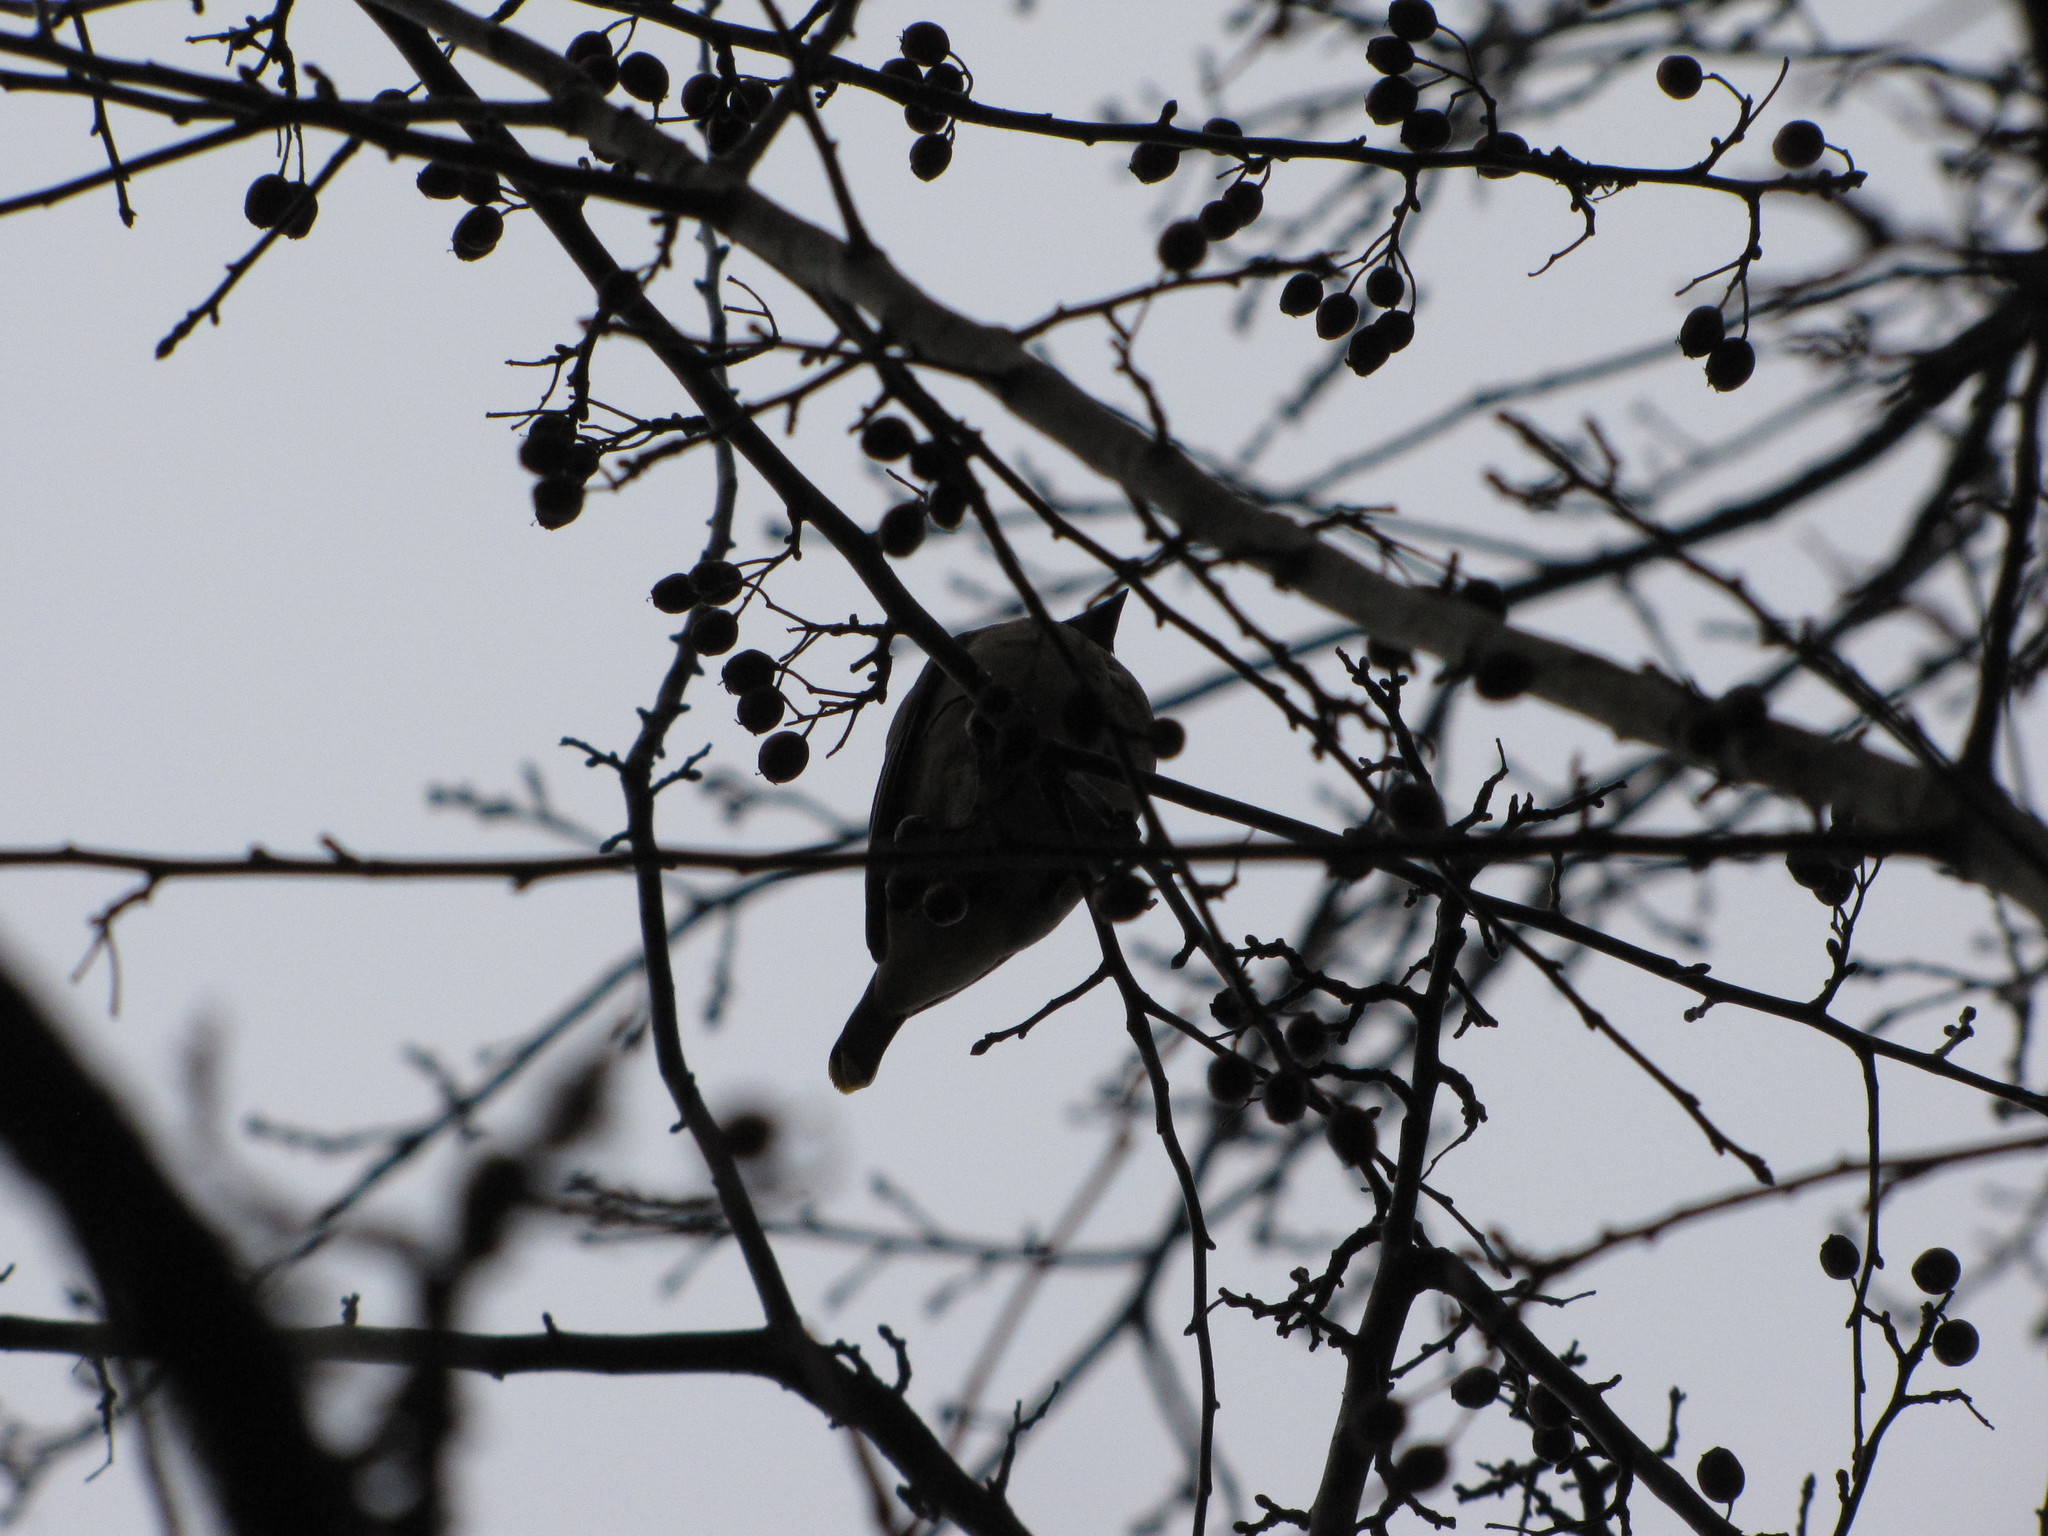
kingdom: Animalia
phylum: Chordata
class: Aves
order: Passeriformes
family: Bombycillidae
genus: Bombycilla
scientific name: Bombycilla cedrorum
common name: Cedar waxwing
